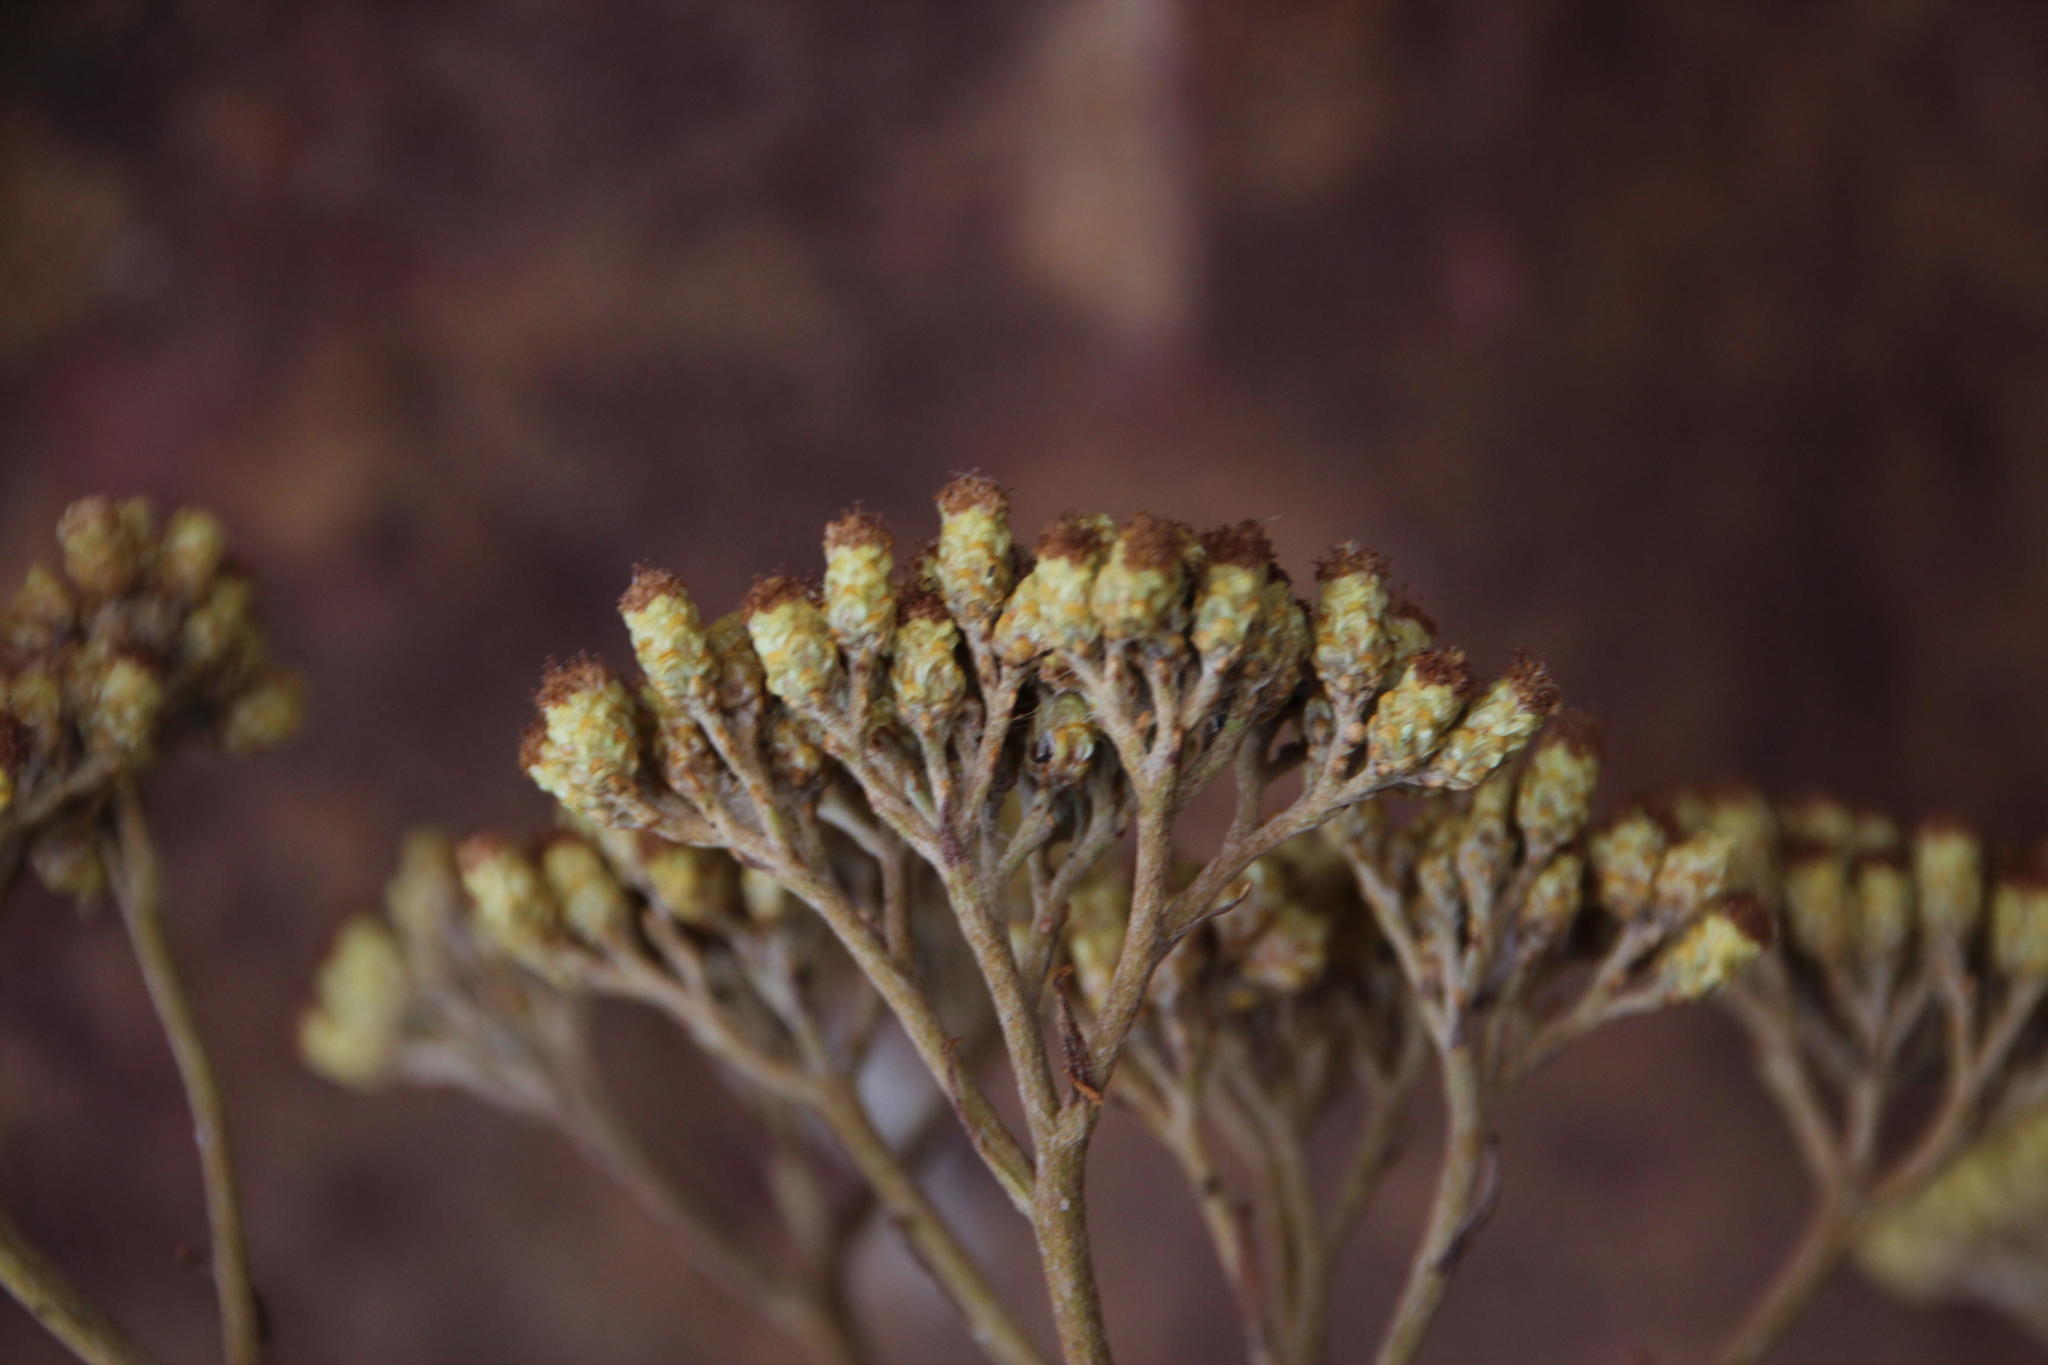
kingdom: Plantae
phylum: Tracheophyta
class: Magnoliopsida
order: Asterales
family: Asteraceae
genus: Helichrysum
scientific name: Helichrysum nudifolium
